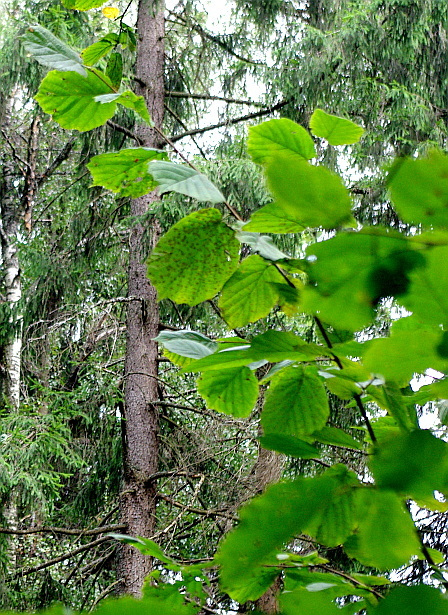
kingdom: Plantae
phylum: Tracheophyta
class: Magnoliopsida
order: Fagales
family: Betulaceae
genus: Corylus
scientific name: Corylus avellana
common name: European hazel
